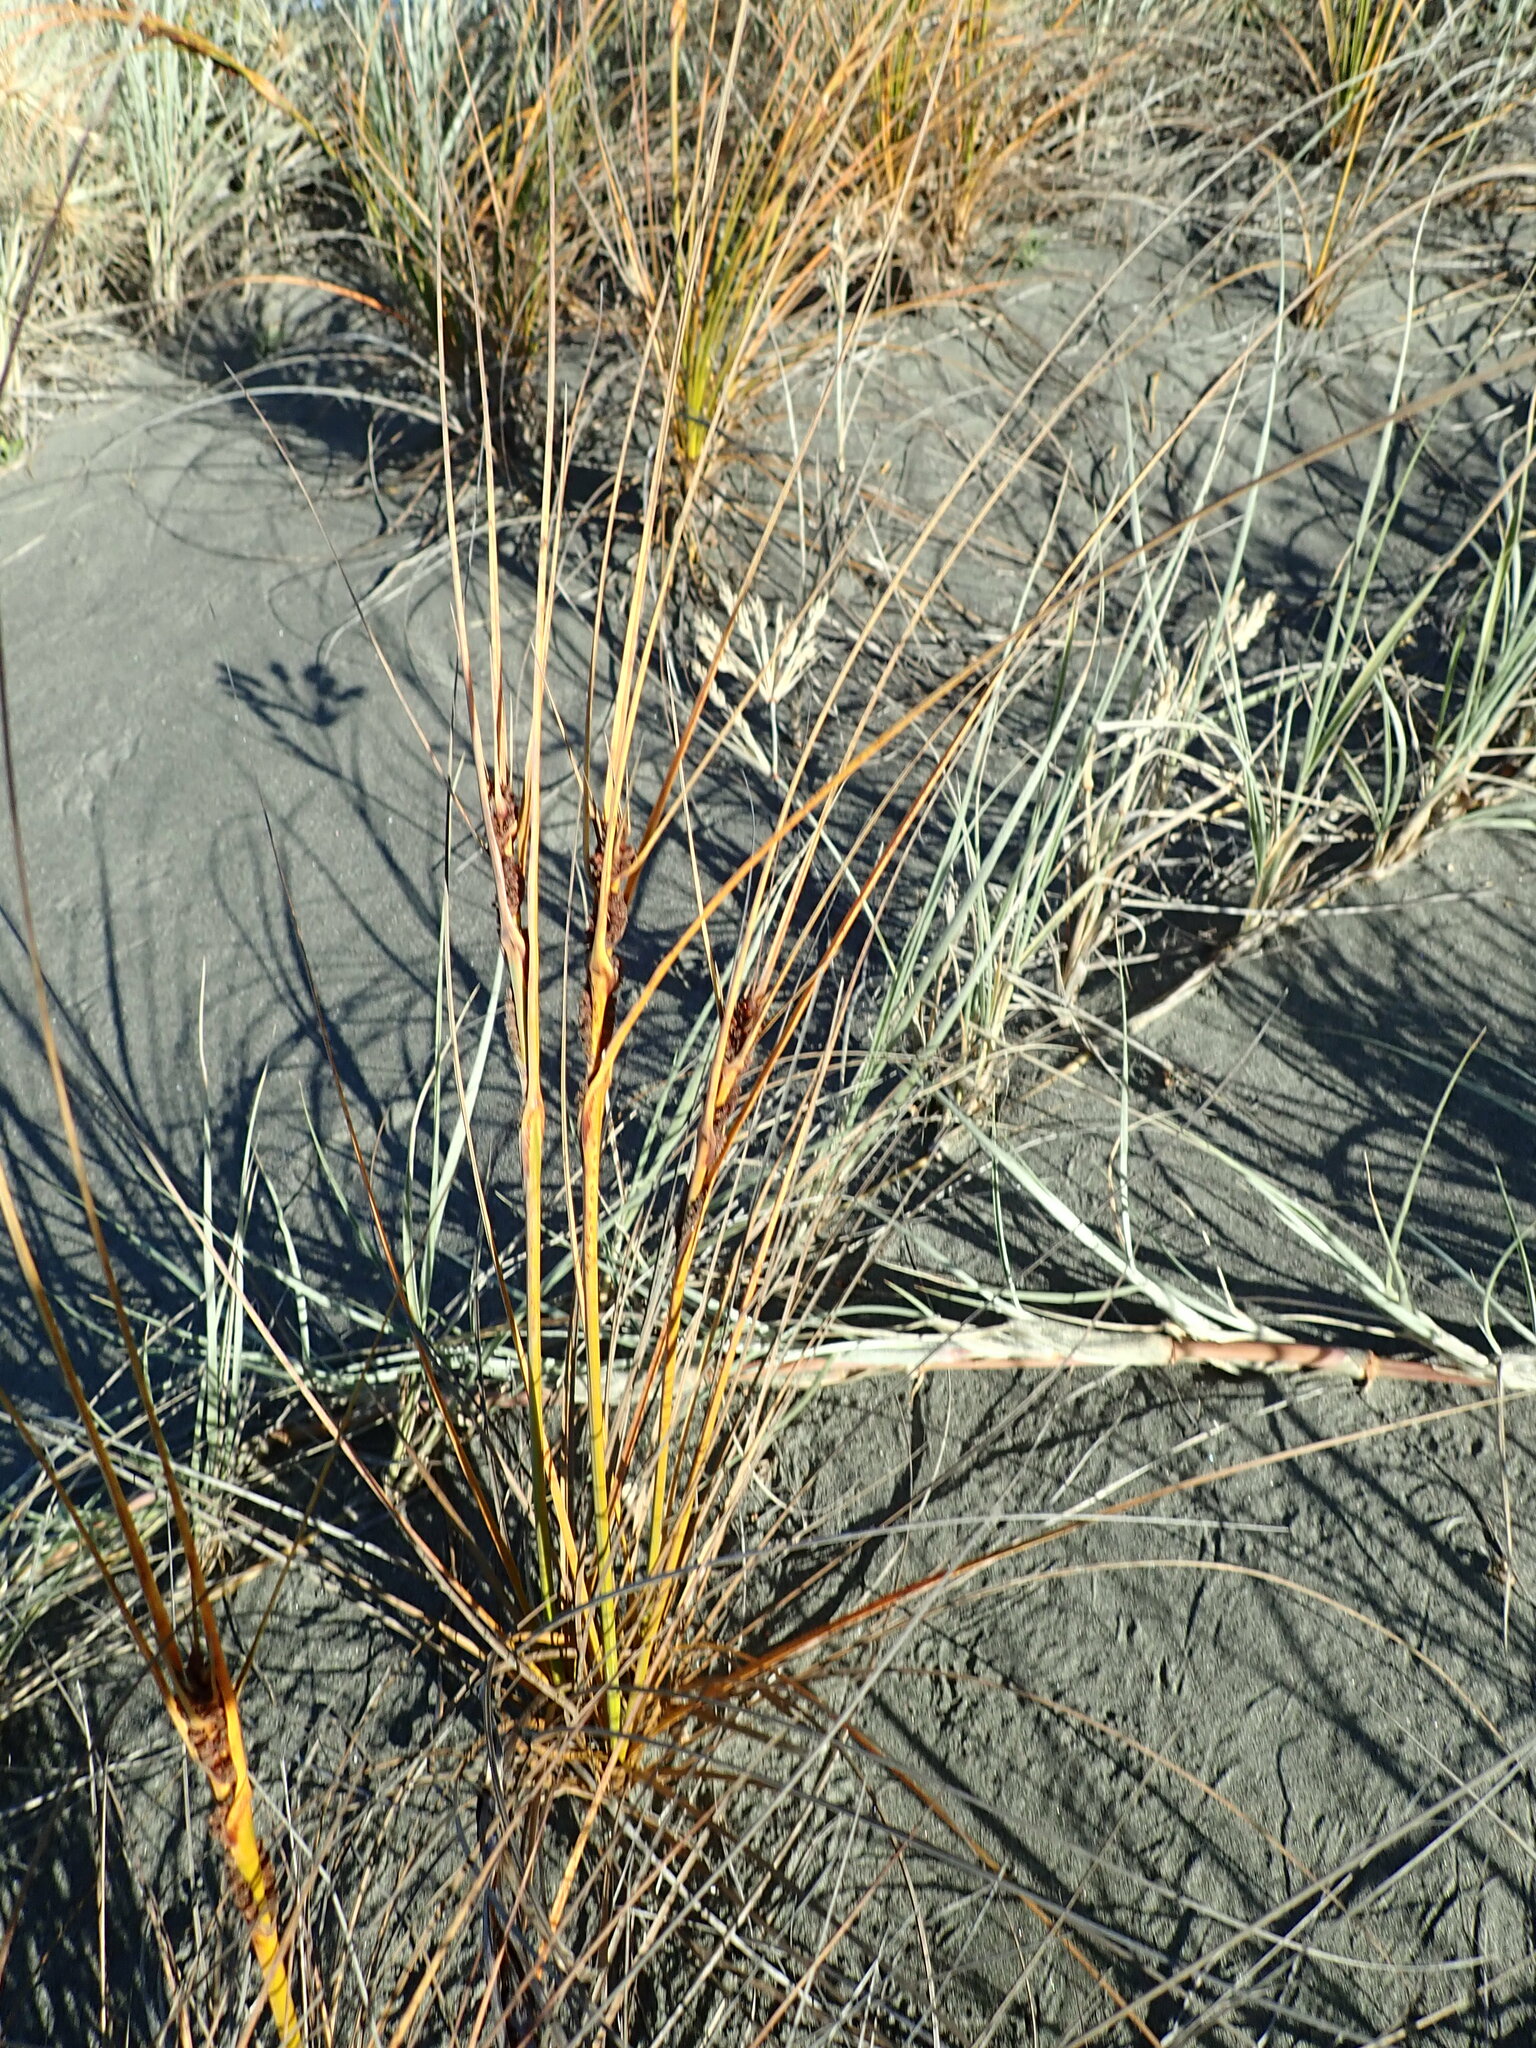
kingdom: Plantae
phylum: Tracheophyta
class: Liliopsida
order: Poales
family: Cyperaceae
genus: Ficinia
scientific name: Ficinia spiralis
